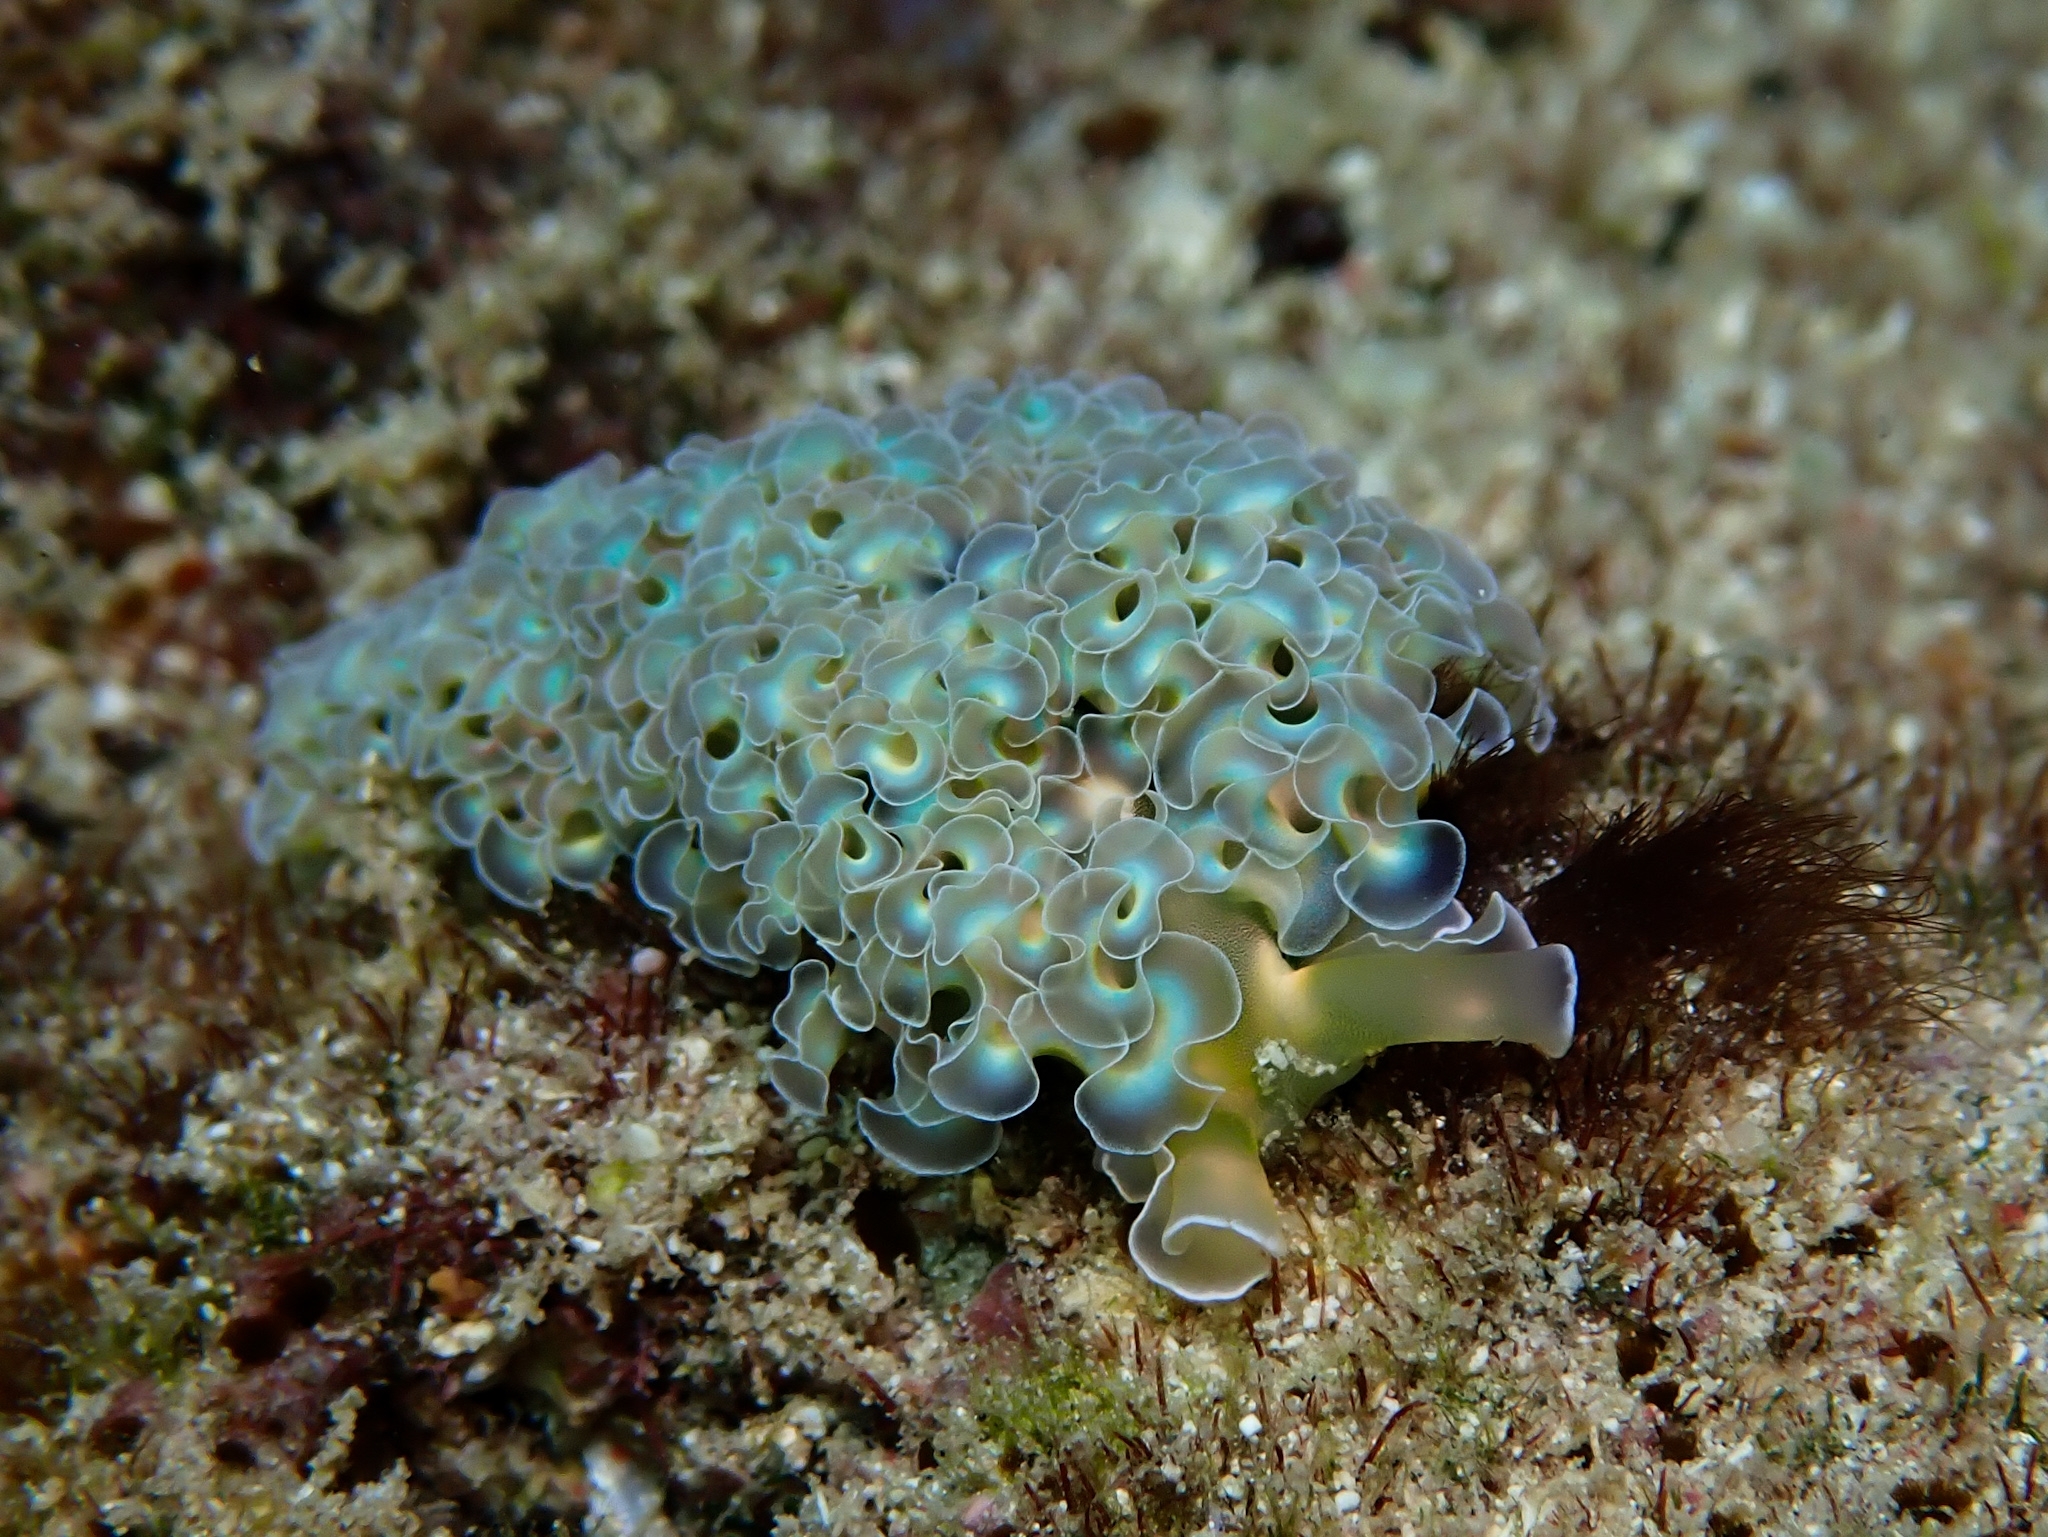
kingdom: Animalia
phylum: Mollusca
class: Gastropoda
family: Plakobranchidae
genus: Elysia
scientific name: Elysia crispata
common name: Lettuce slug
